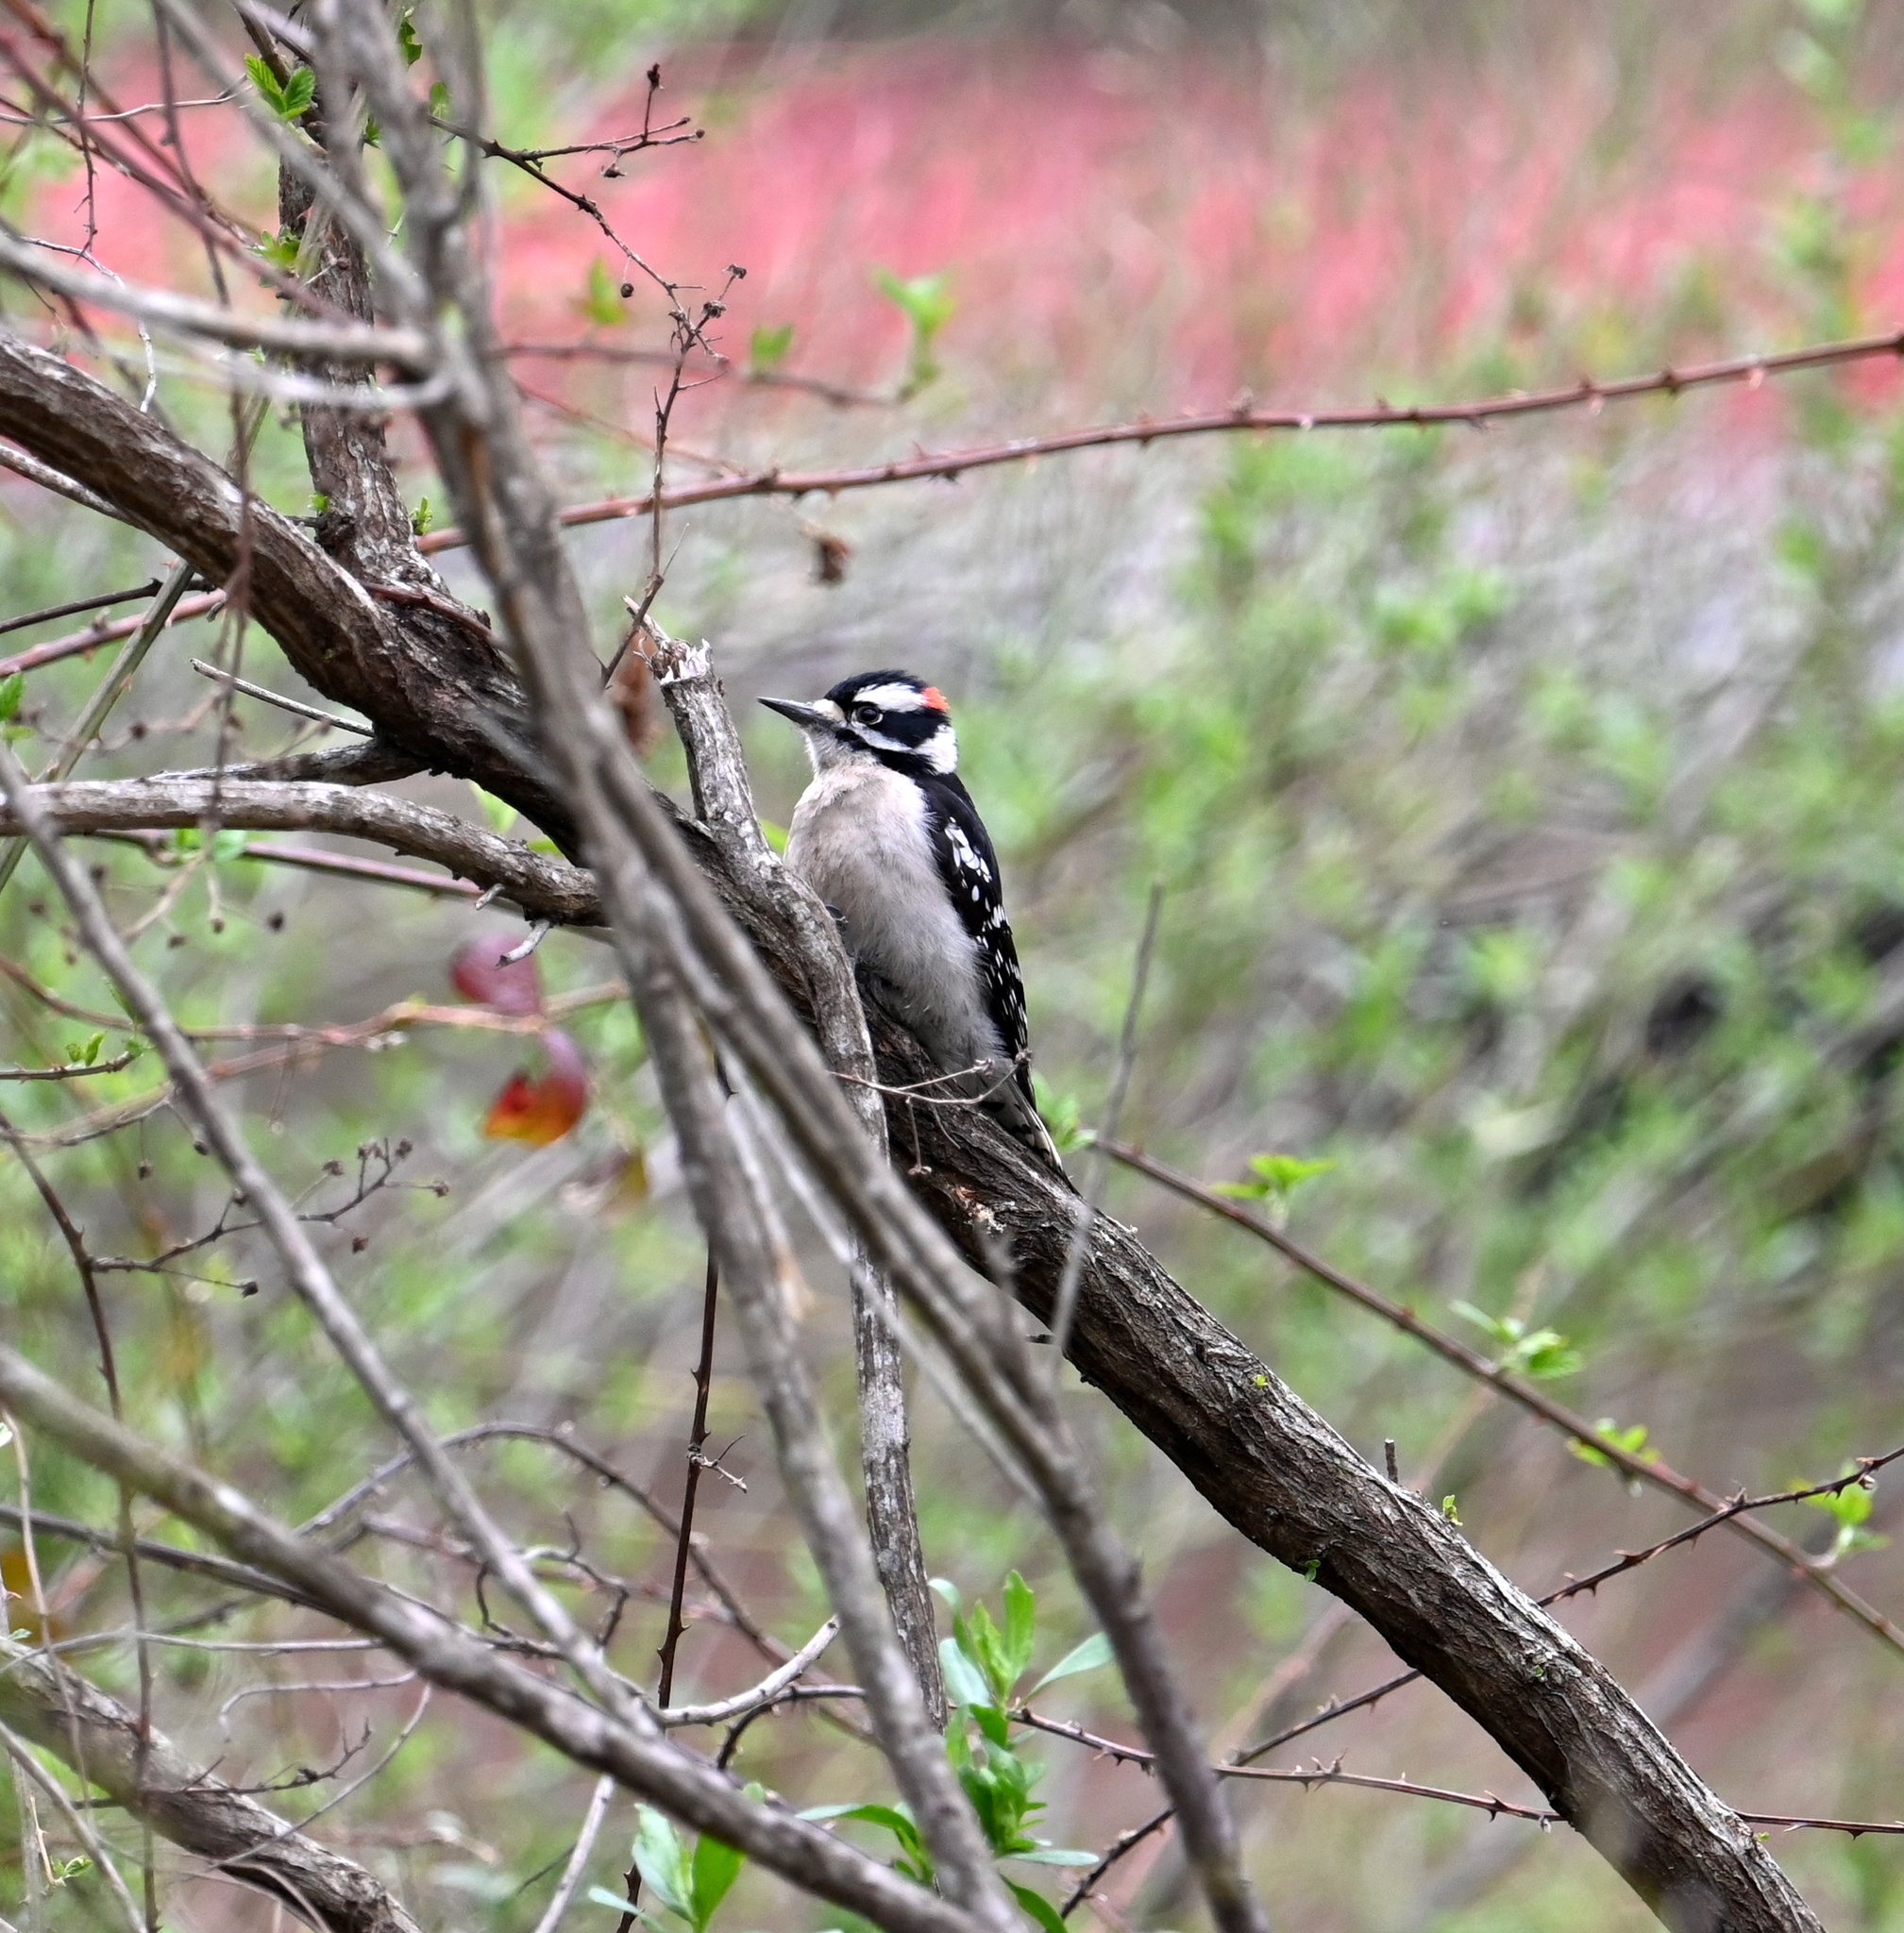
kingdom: Animalia
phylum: Chordata
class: Aves
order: Piciformes
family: Picidae
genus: Dryobates
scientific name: Dryobates pubescens
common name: Downy woodpecker
